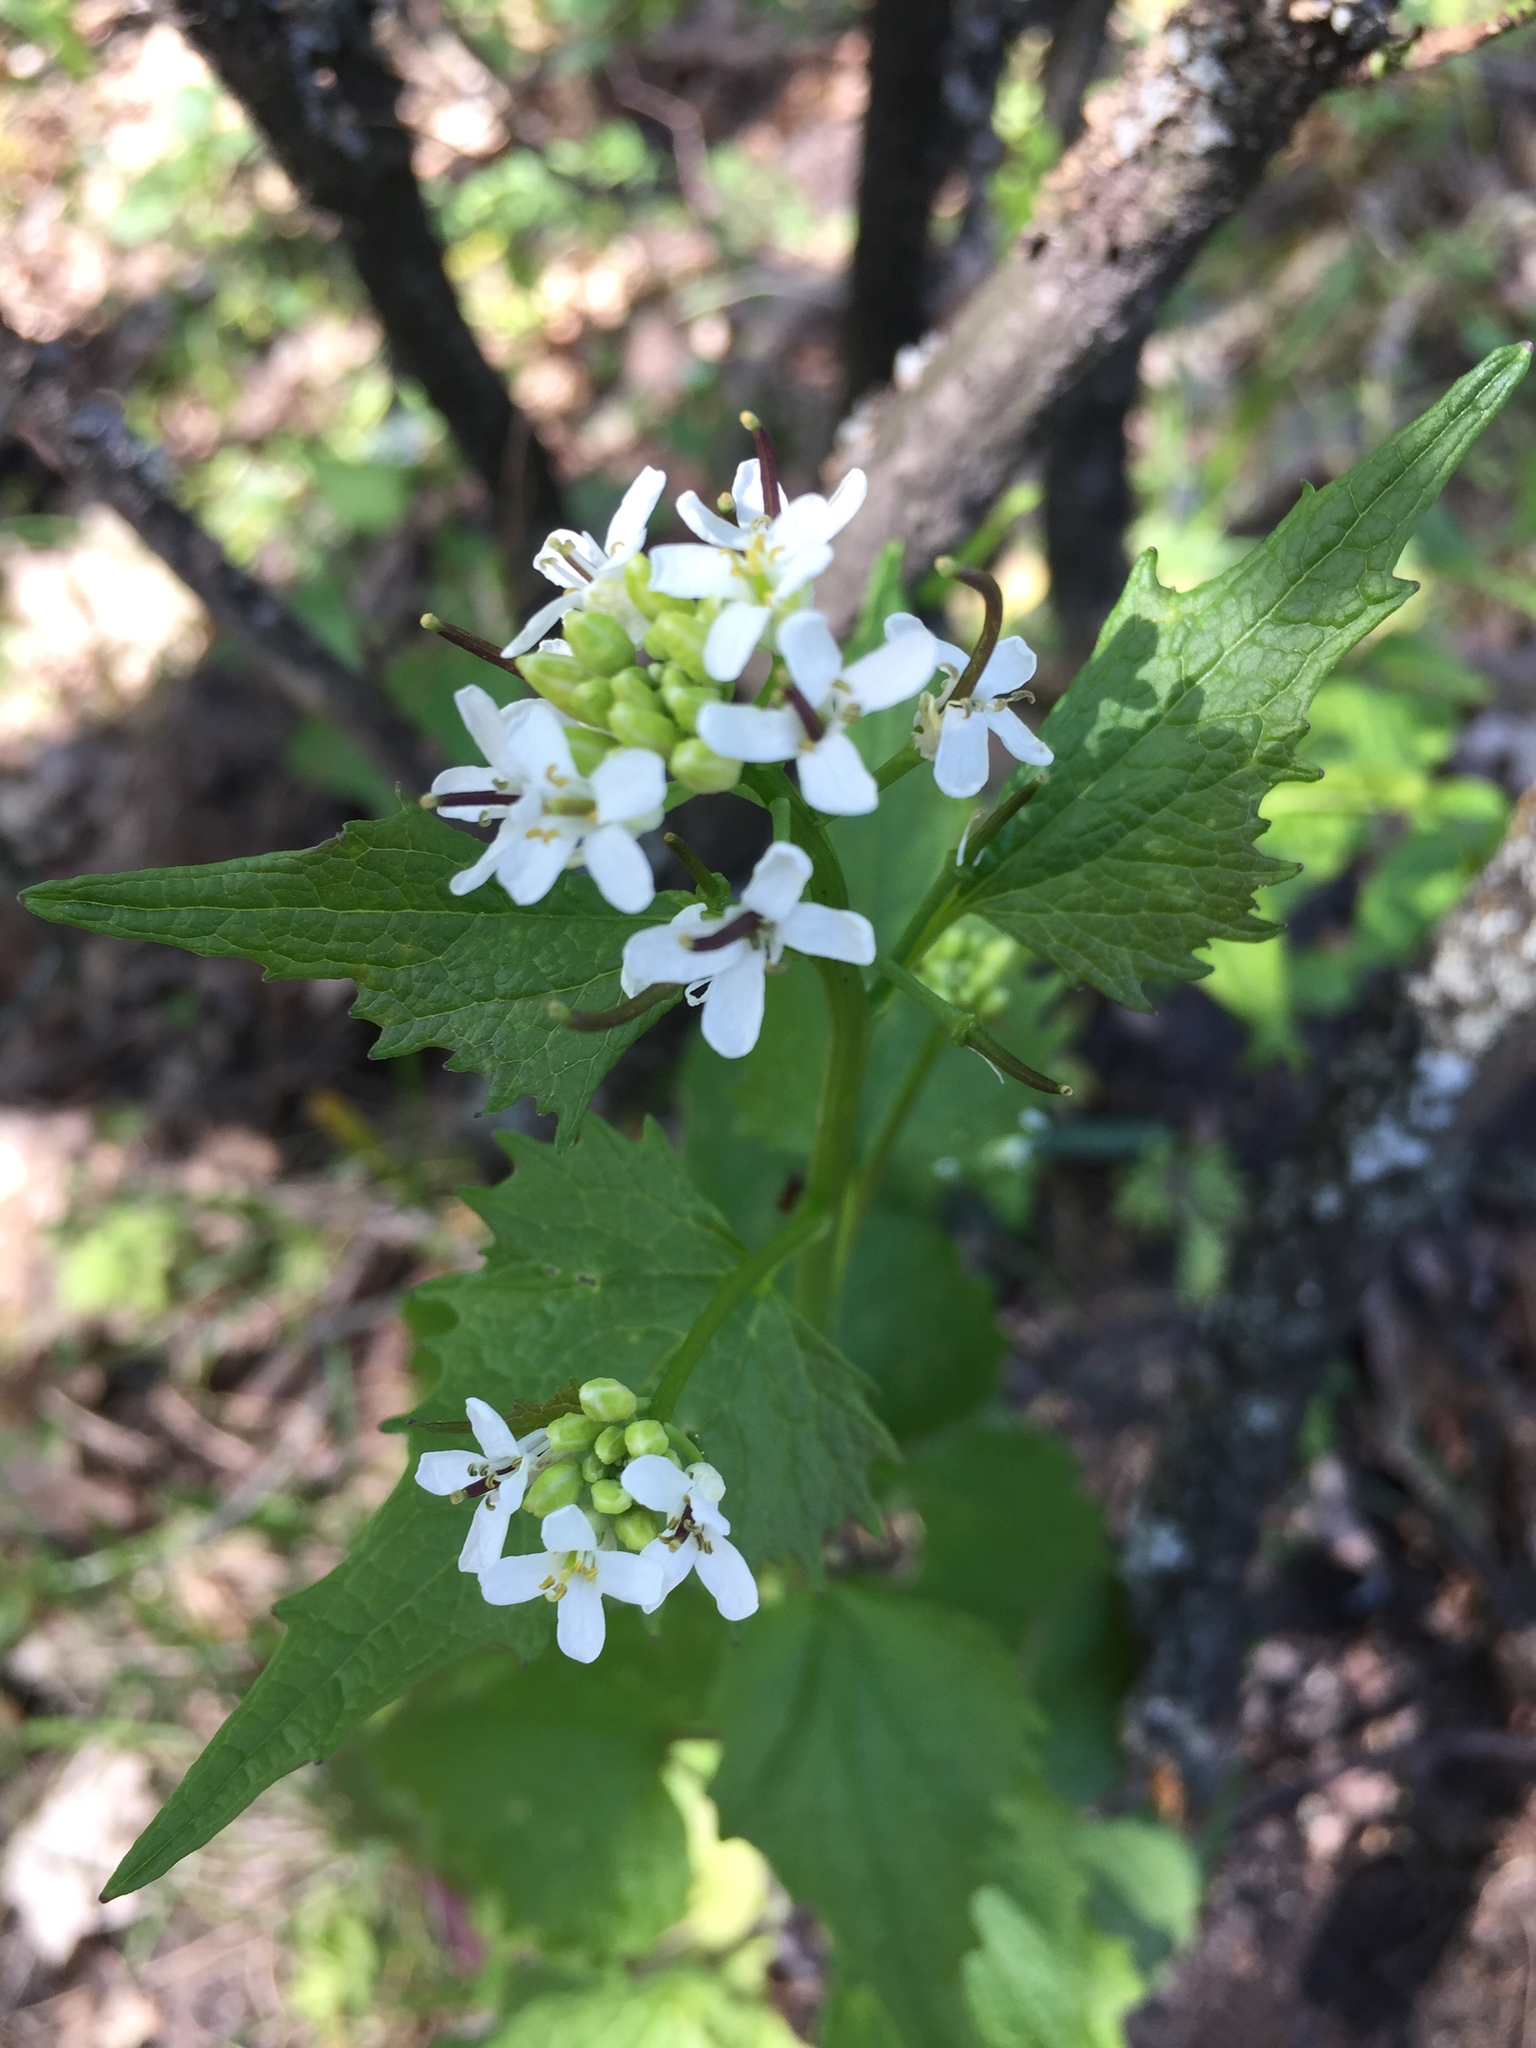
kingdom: Plantae
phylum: Tracheophyta
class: Magnoliopsida
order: Brassicales
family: Brassicaceae
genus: Alliaria
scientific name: Alliaria petiolata
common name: Garlic mustard
